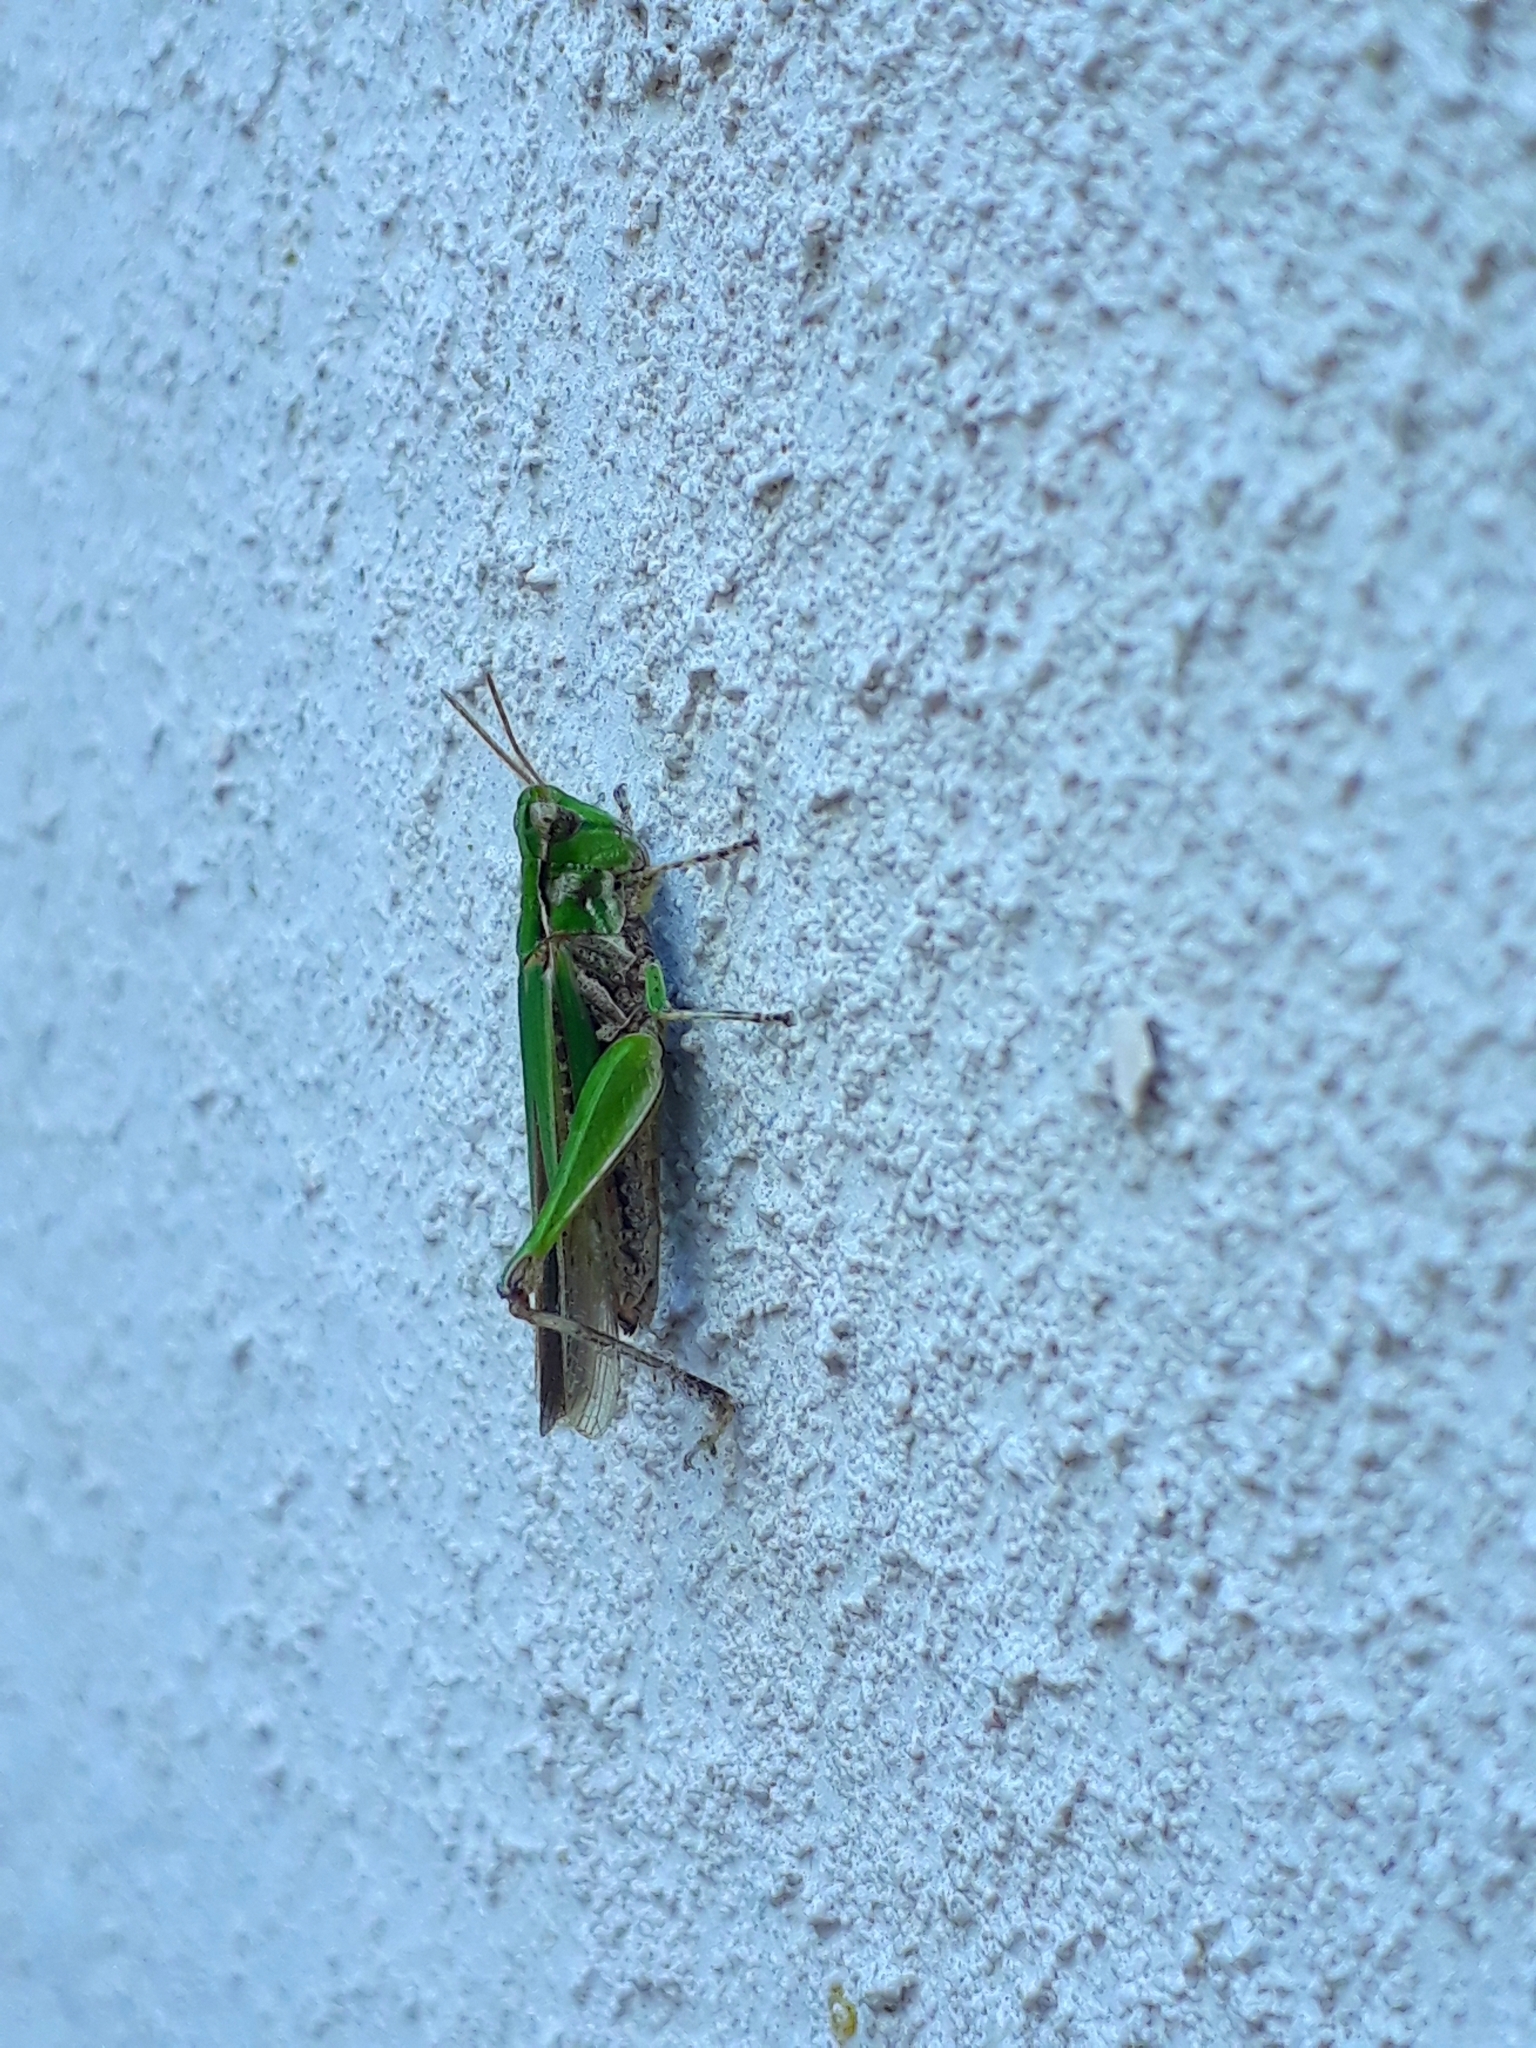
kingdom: Animalia
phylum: Arthropoda
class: Insecta
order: Orthoptera
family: Acrididae
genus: Orphulella
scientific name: Orphulella punctata
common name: Slant-faced grasshopper
